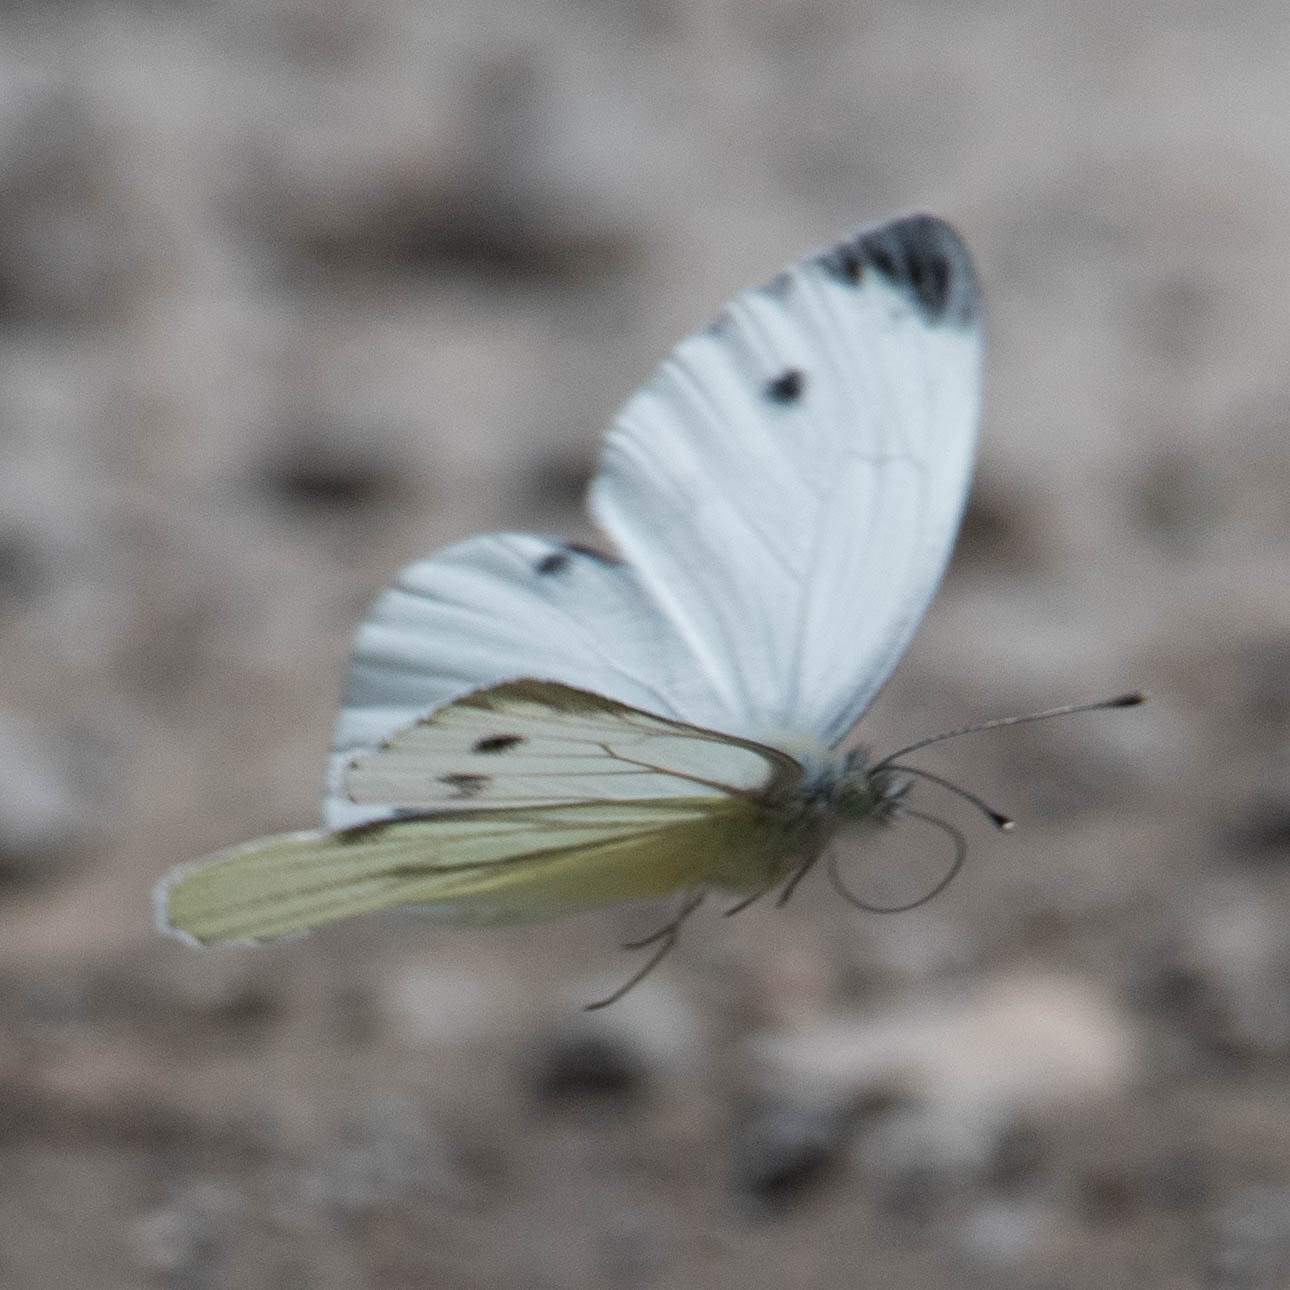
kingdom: Animalia
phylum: Arthropoda
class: Insecta
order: Lepidoptera
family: Pieridae
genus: Pieris
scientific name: Pieris napi
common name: Green-veined white
